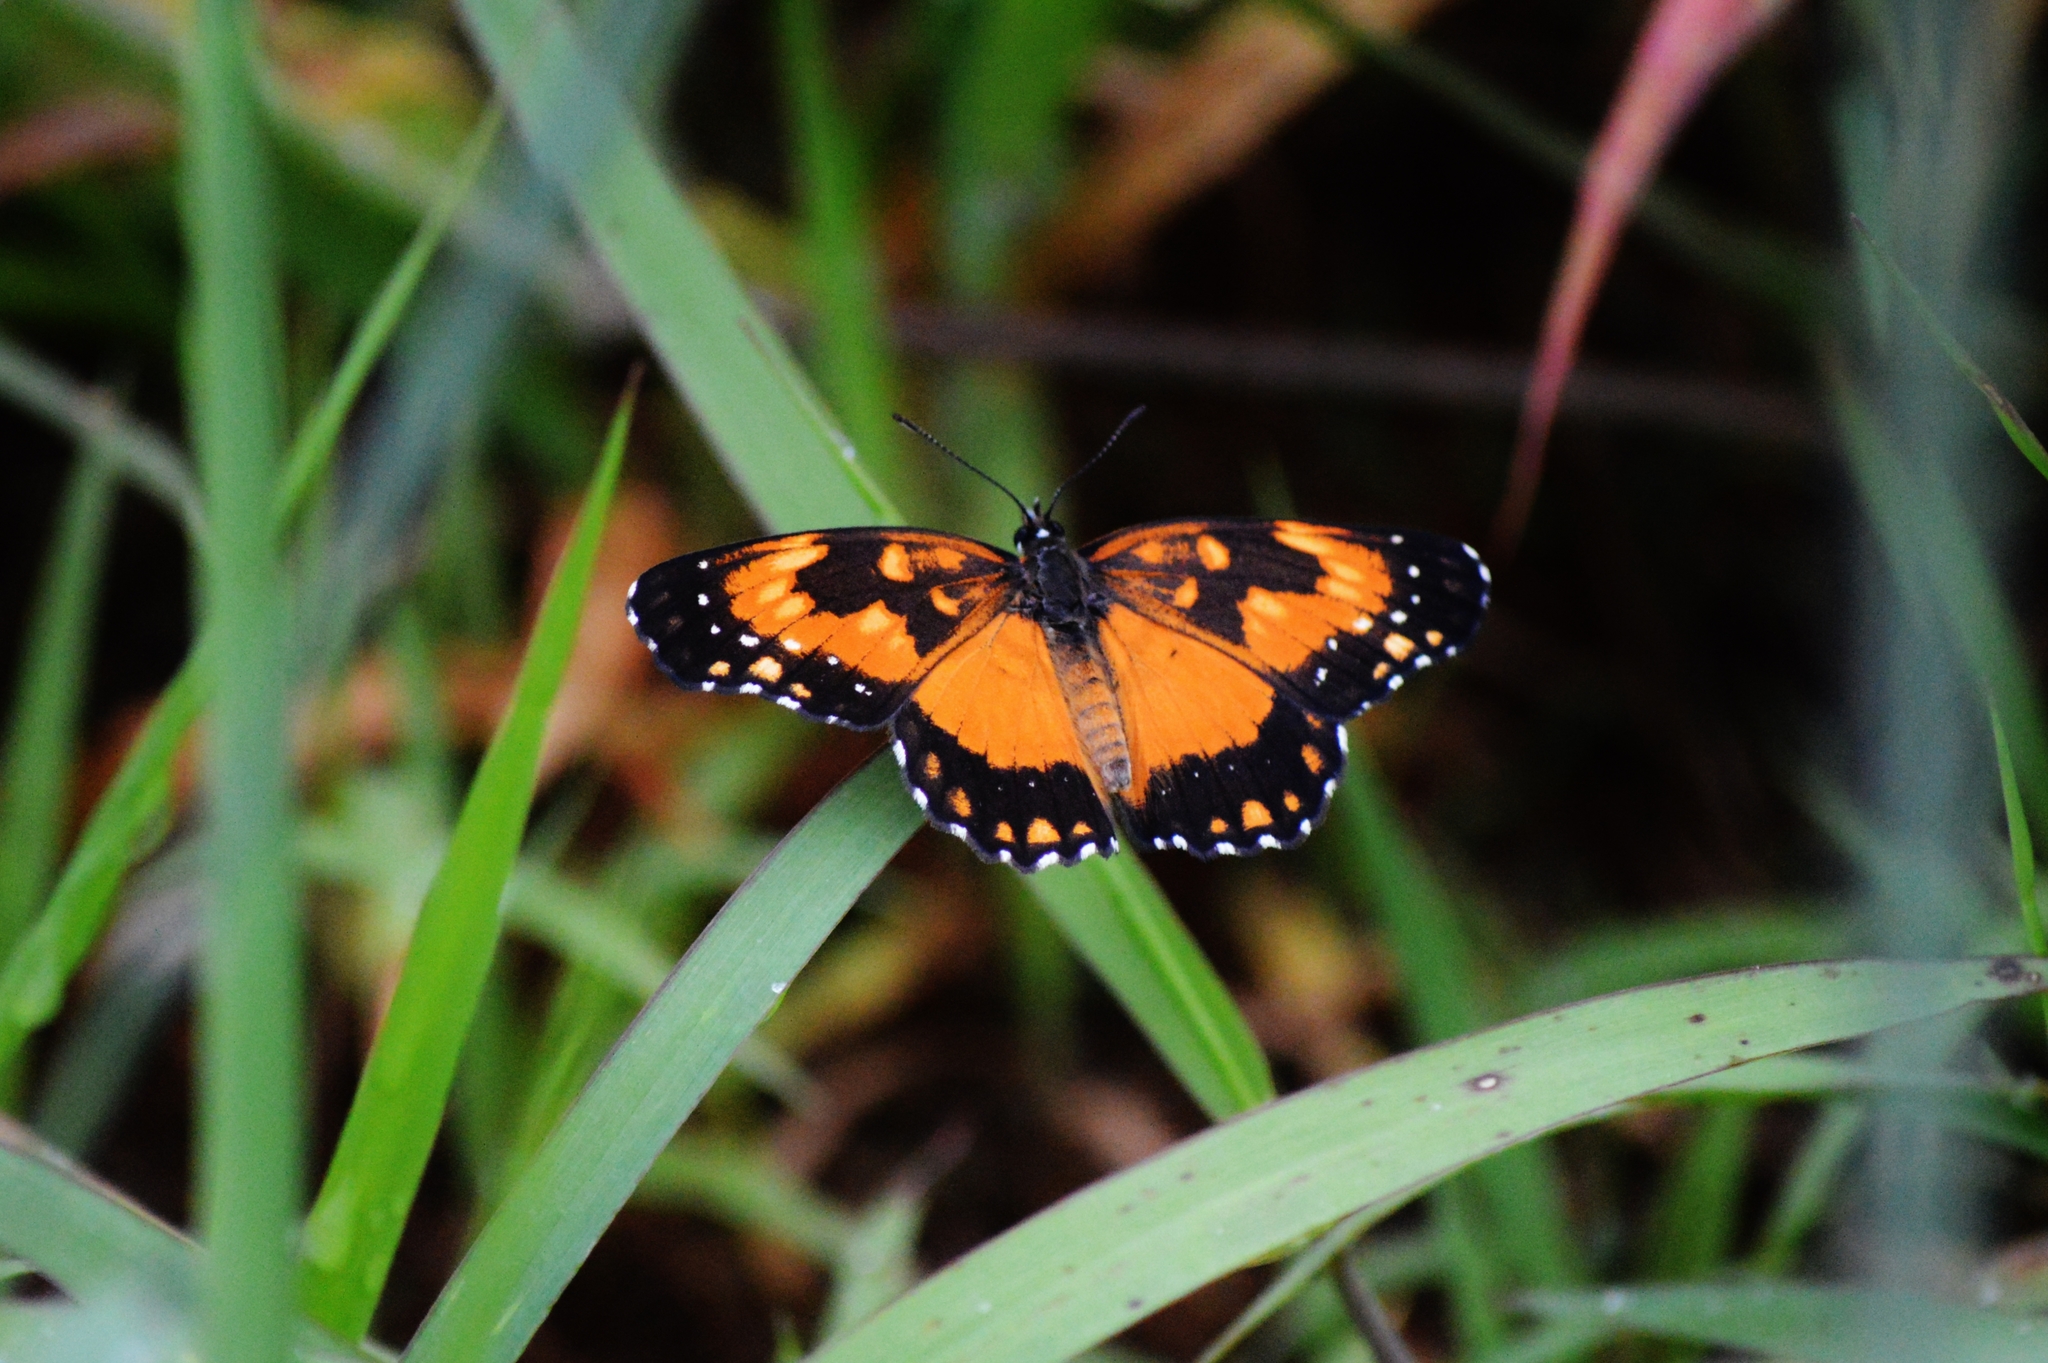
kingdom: Animalia
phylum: Arthropoda
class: Insecta
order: Lepidoptera
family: Nymphalidae
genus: Chlosyne
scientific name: Chlosyne lacinia
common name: Bordered patch
